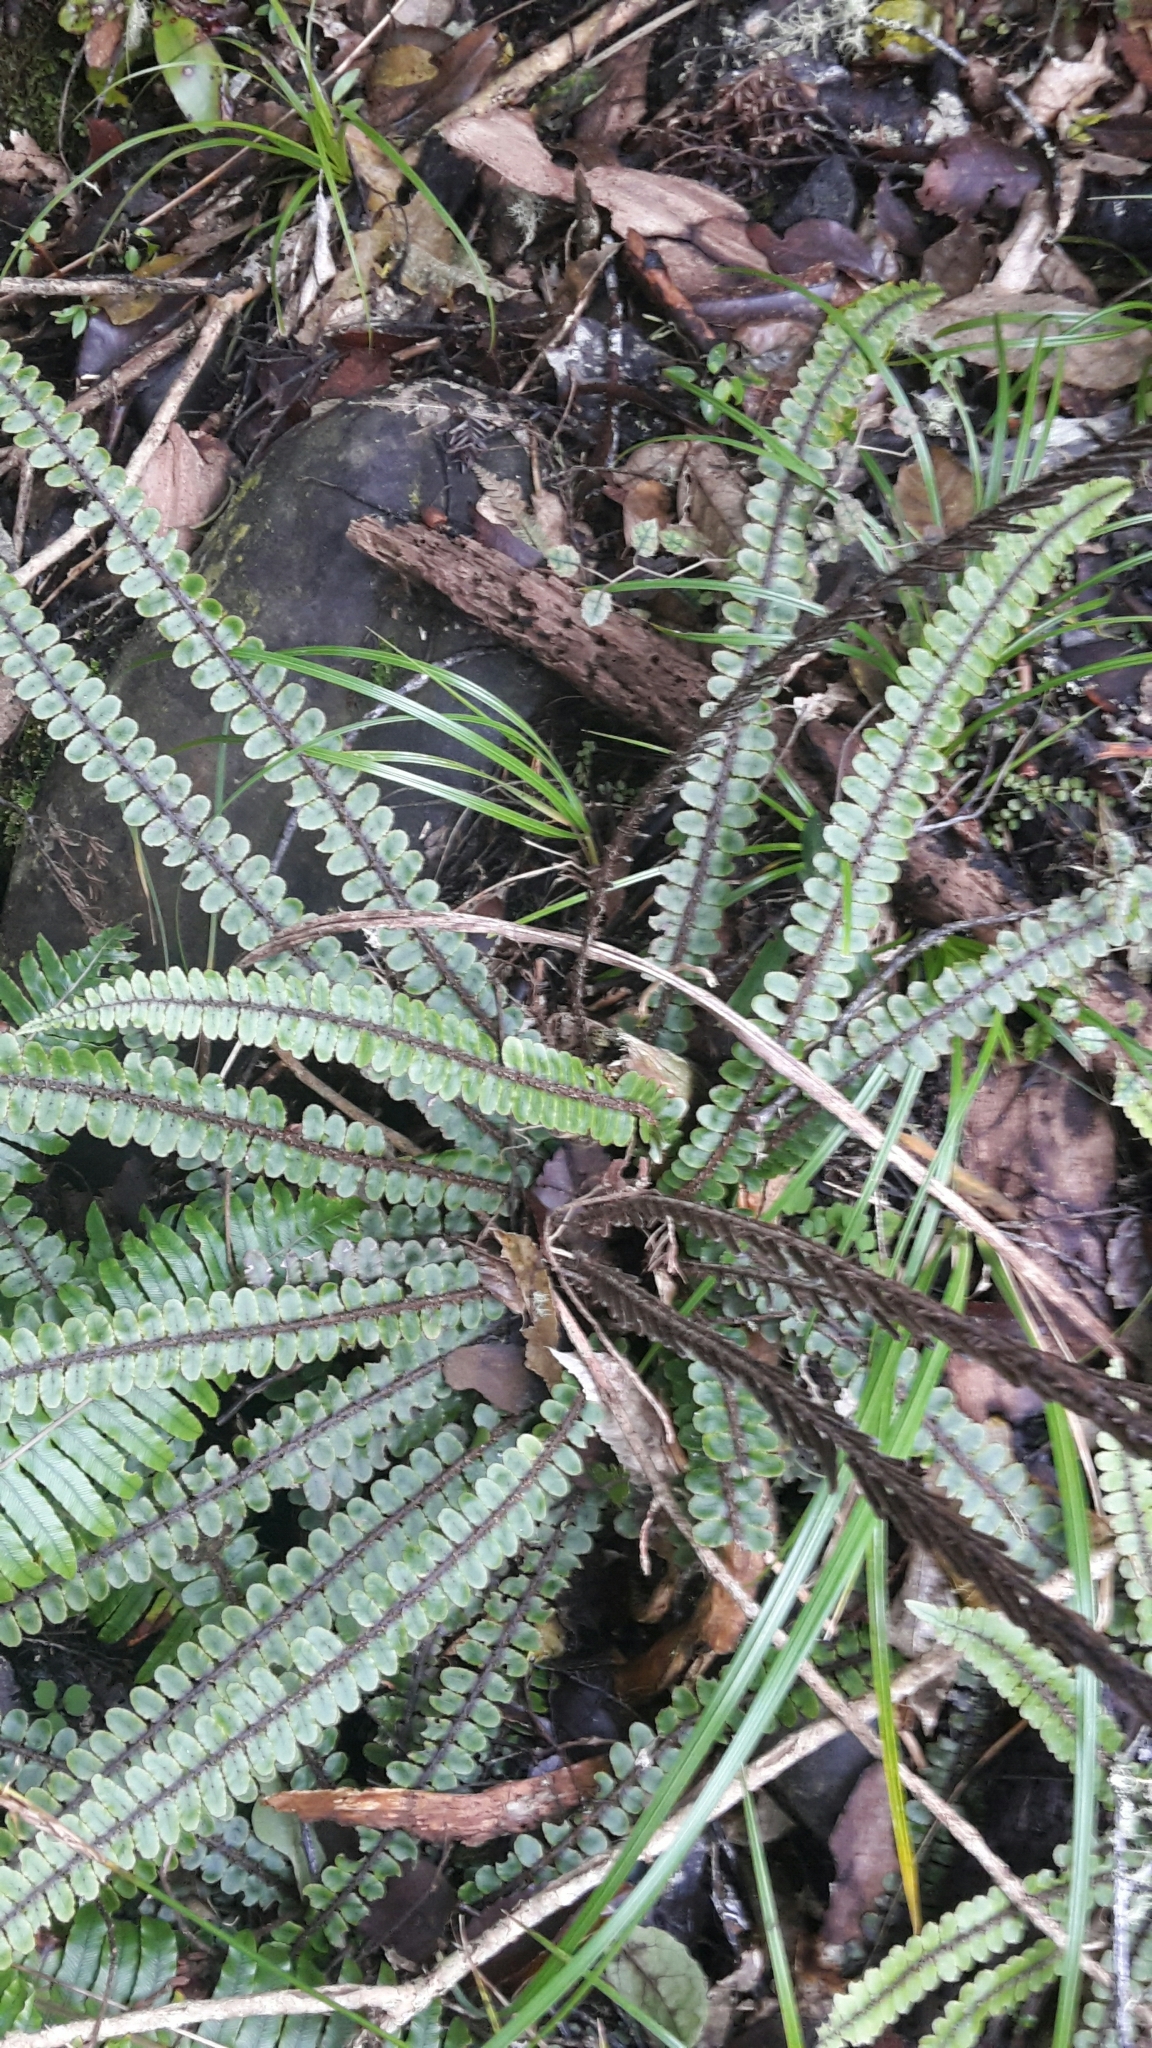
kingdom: Plantae
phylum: Tracheophyta
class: Polypodiopsida
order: Polypodiales
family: Blechnaceae
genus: Cranfillia
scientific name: Cranfillia fluviatilis
